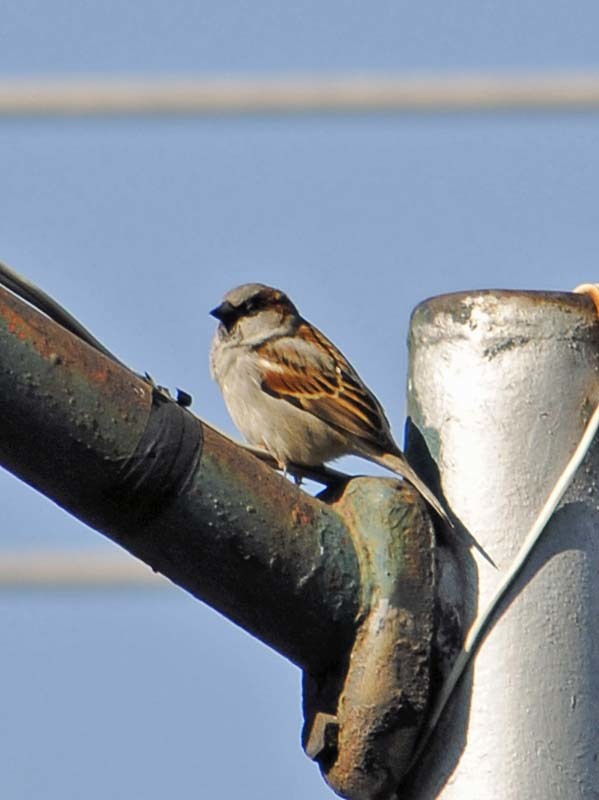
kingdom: Animalia
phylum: Chordata
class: Aves
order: Passeriformes
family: Passeridae
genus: Passer
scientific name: Passer domesticus
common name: House sparrow
